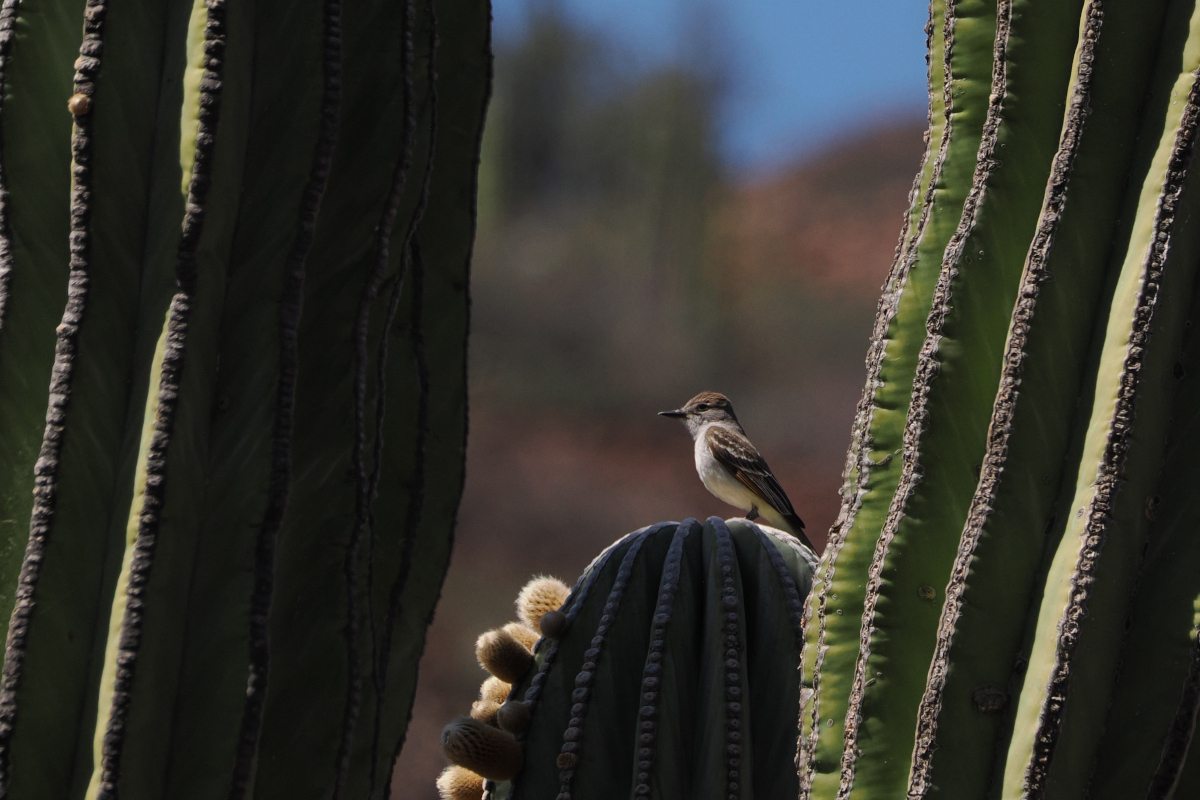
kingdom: Animalia
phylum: Chordata
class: Aves
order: Passeriformes
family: Tyrannidae
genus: Myiarchus
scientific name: Myiarchus cinerascens
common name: Ash-throated flycatcher
